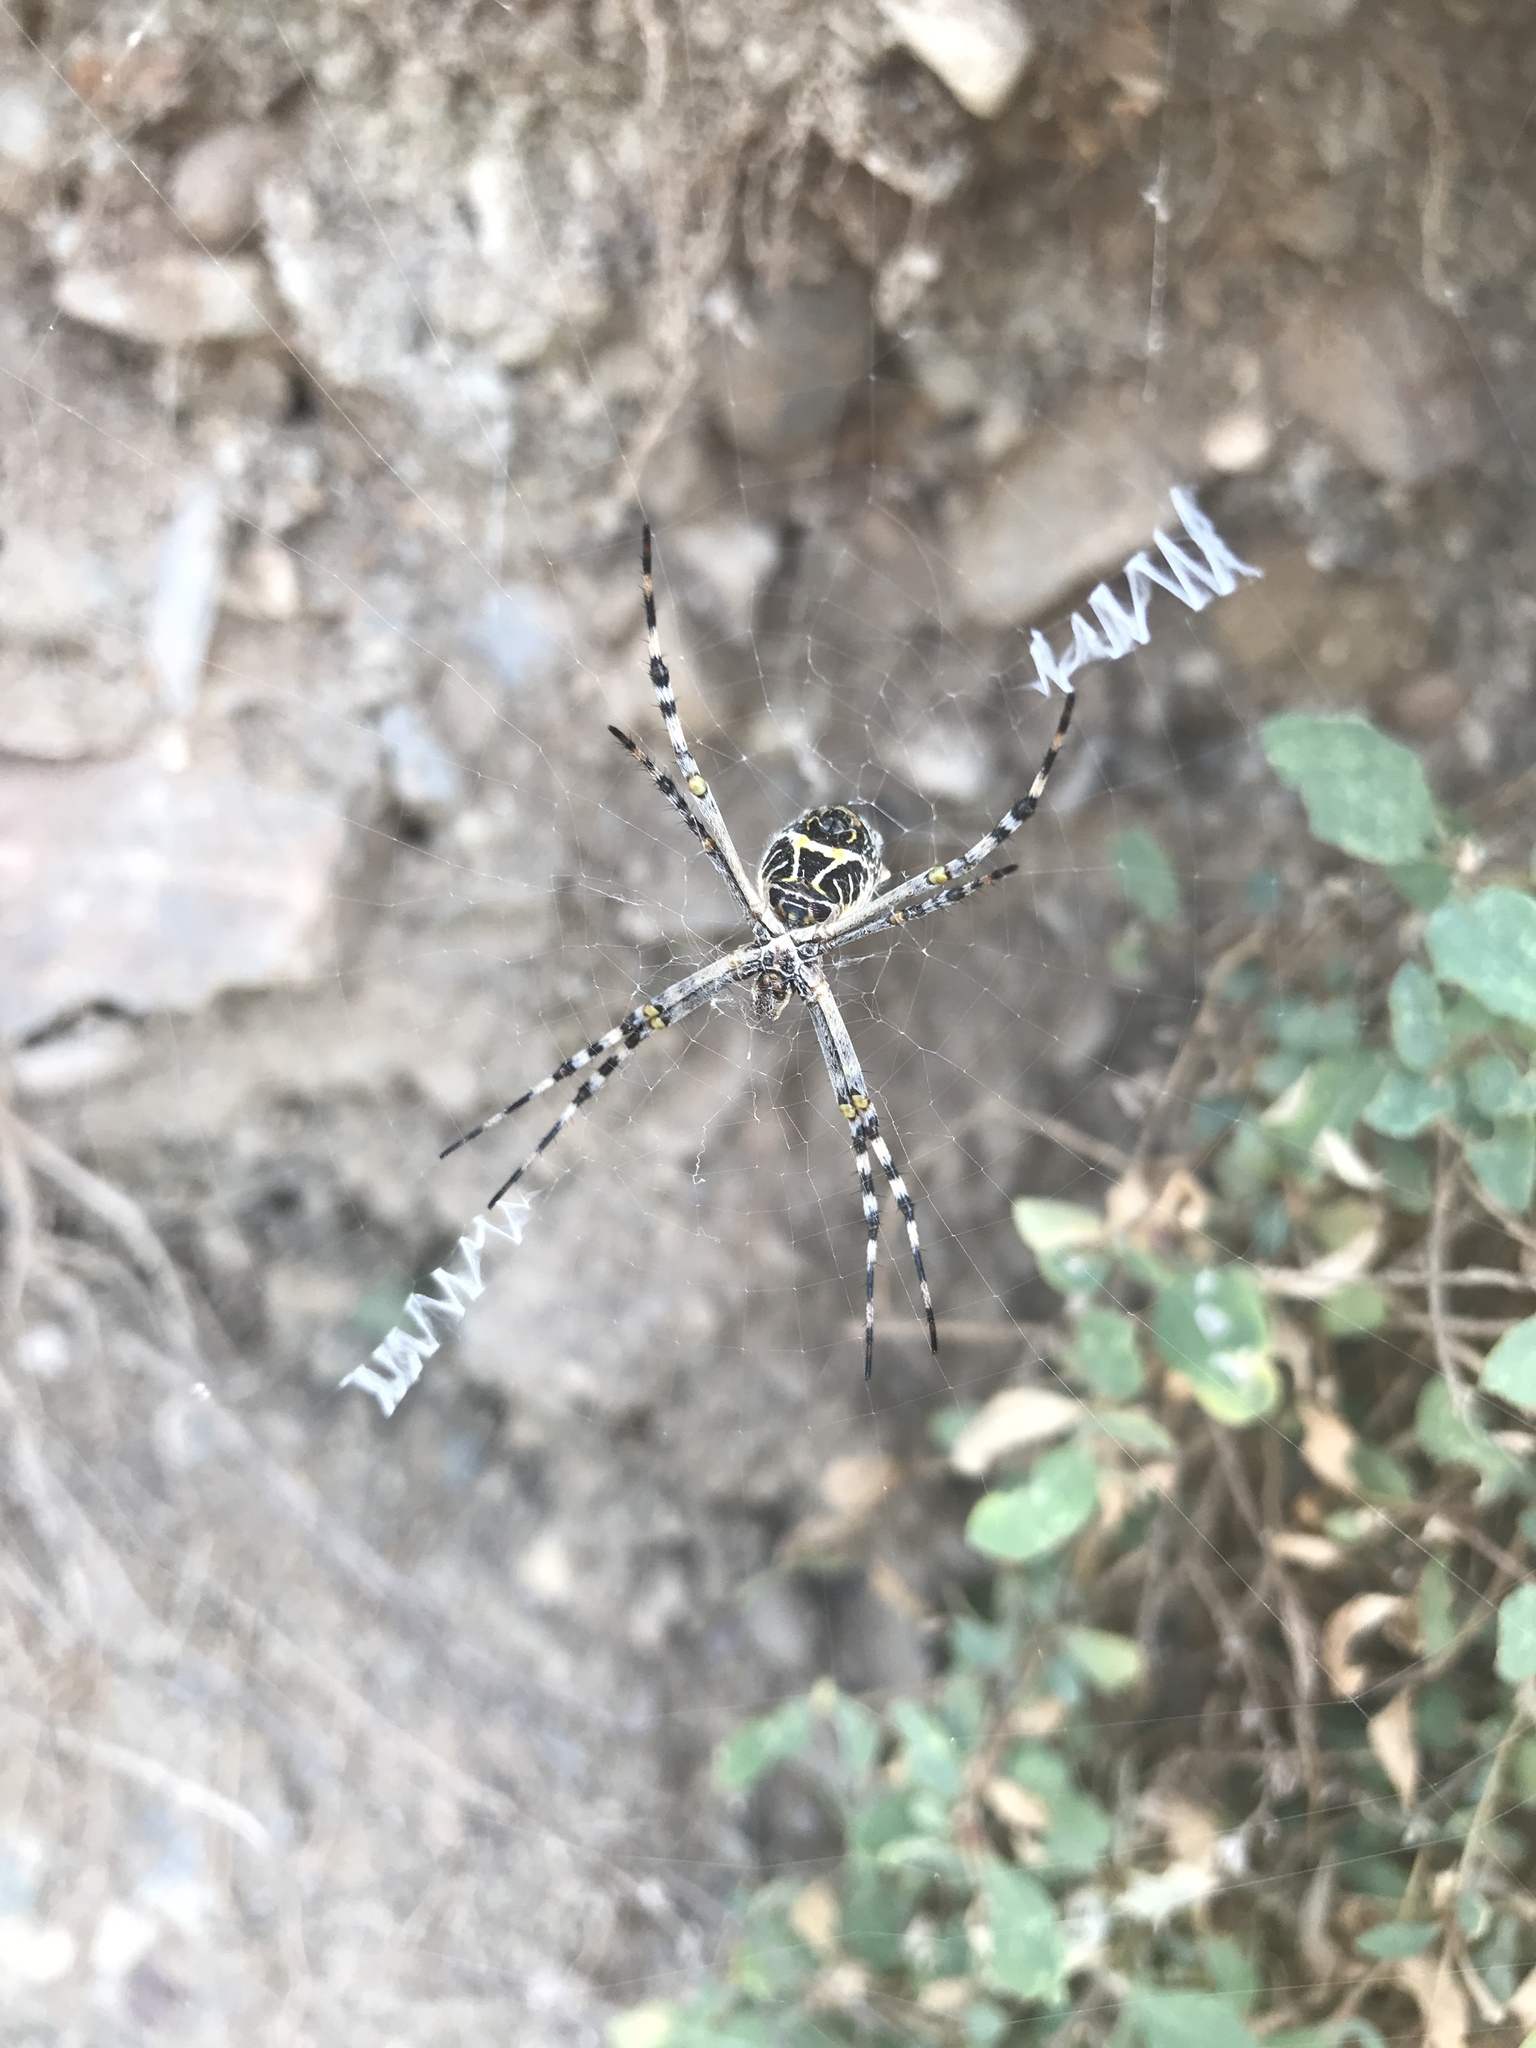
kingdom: Animalia
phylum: Arthropoda
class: Arachnida
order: Araneae
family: Araneidae
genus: Argiope
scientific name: Argiope argentata
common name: Orb weavers
